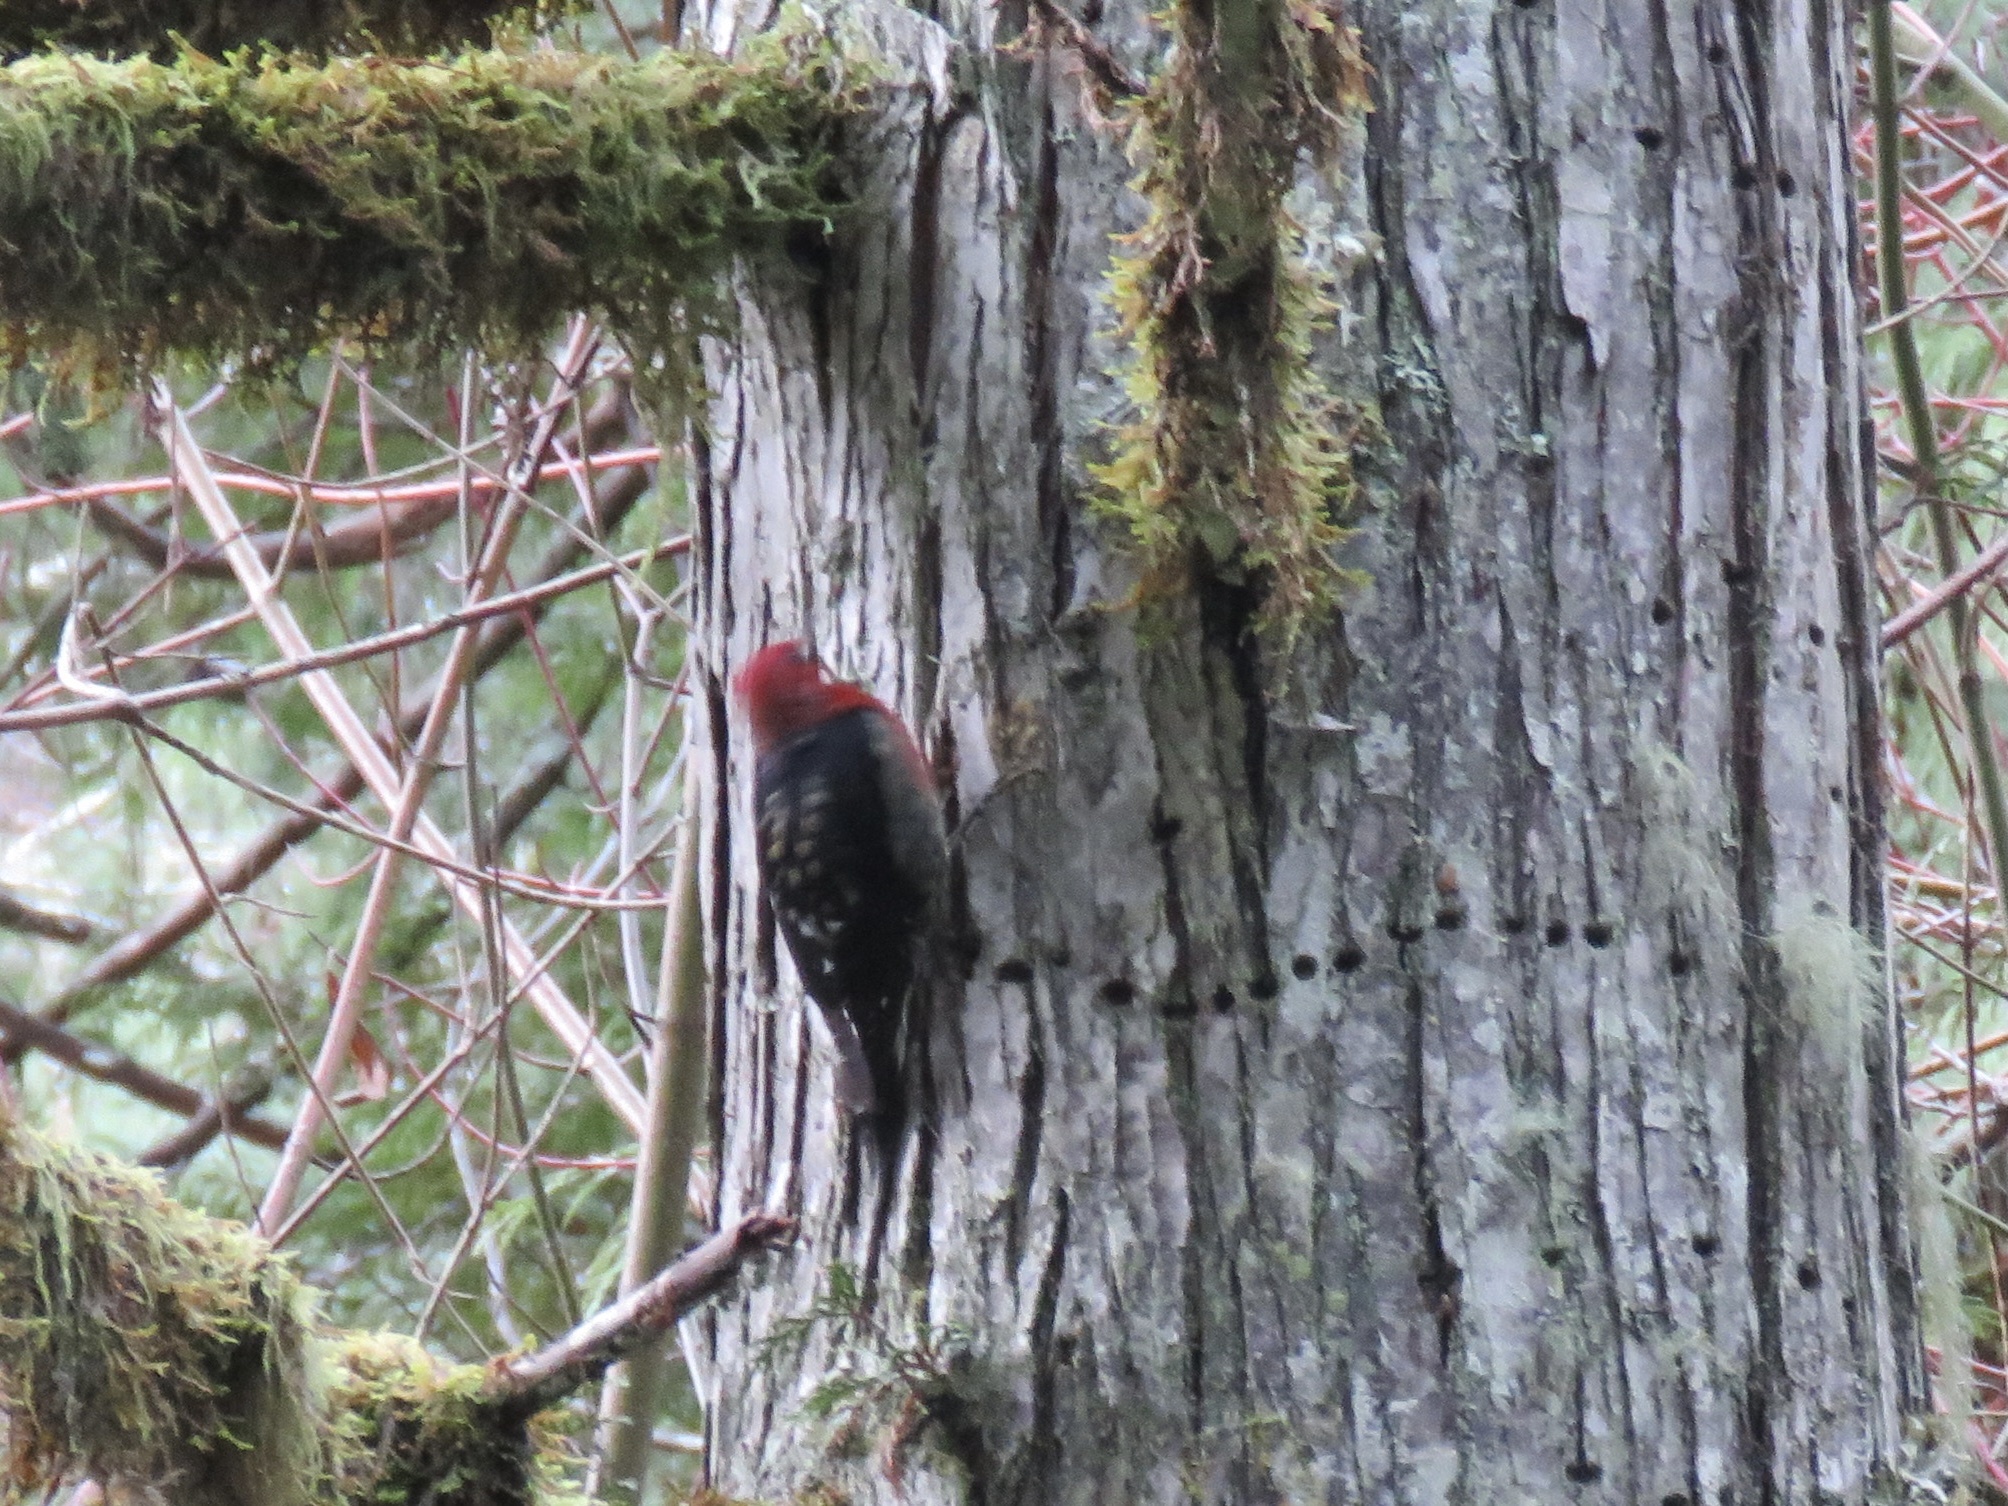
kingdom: Animalia
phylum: Chordata
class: Aves
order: Piciformes
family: Picidae
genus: Sphyrapicus
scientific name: Sphyrapicus ruber
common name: Red-breasted sapsucker
